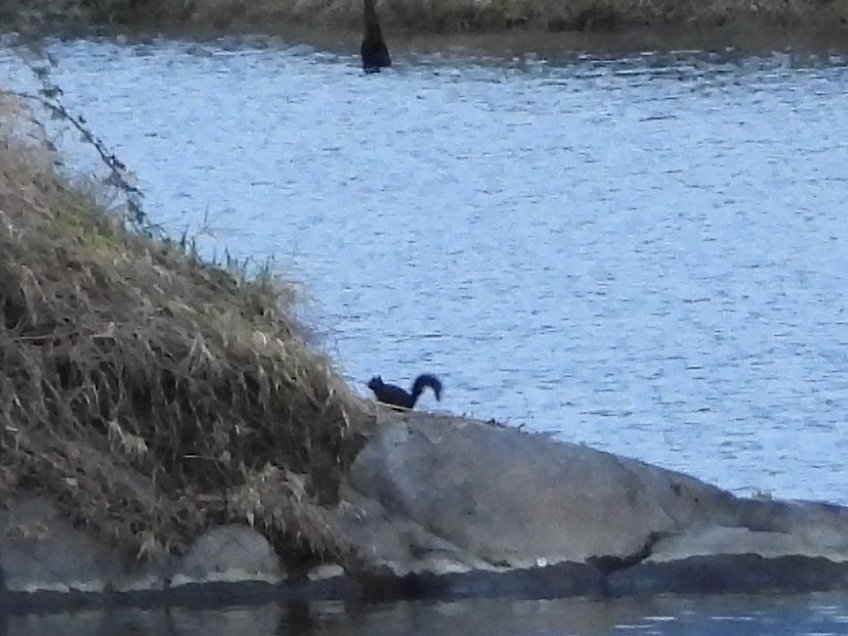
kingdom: Animalia
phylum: Chordata
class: Mammalia
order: Rodentia
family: Sciuridae
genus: Sciurus
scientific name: Sciurus carolinensis
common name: Eastern gray squirrel
